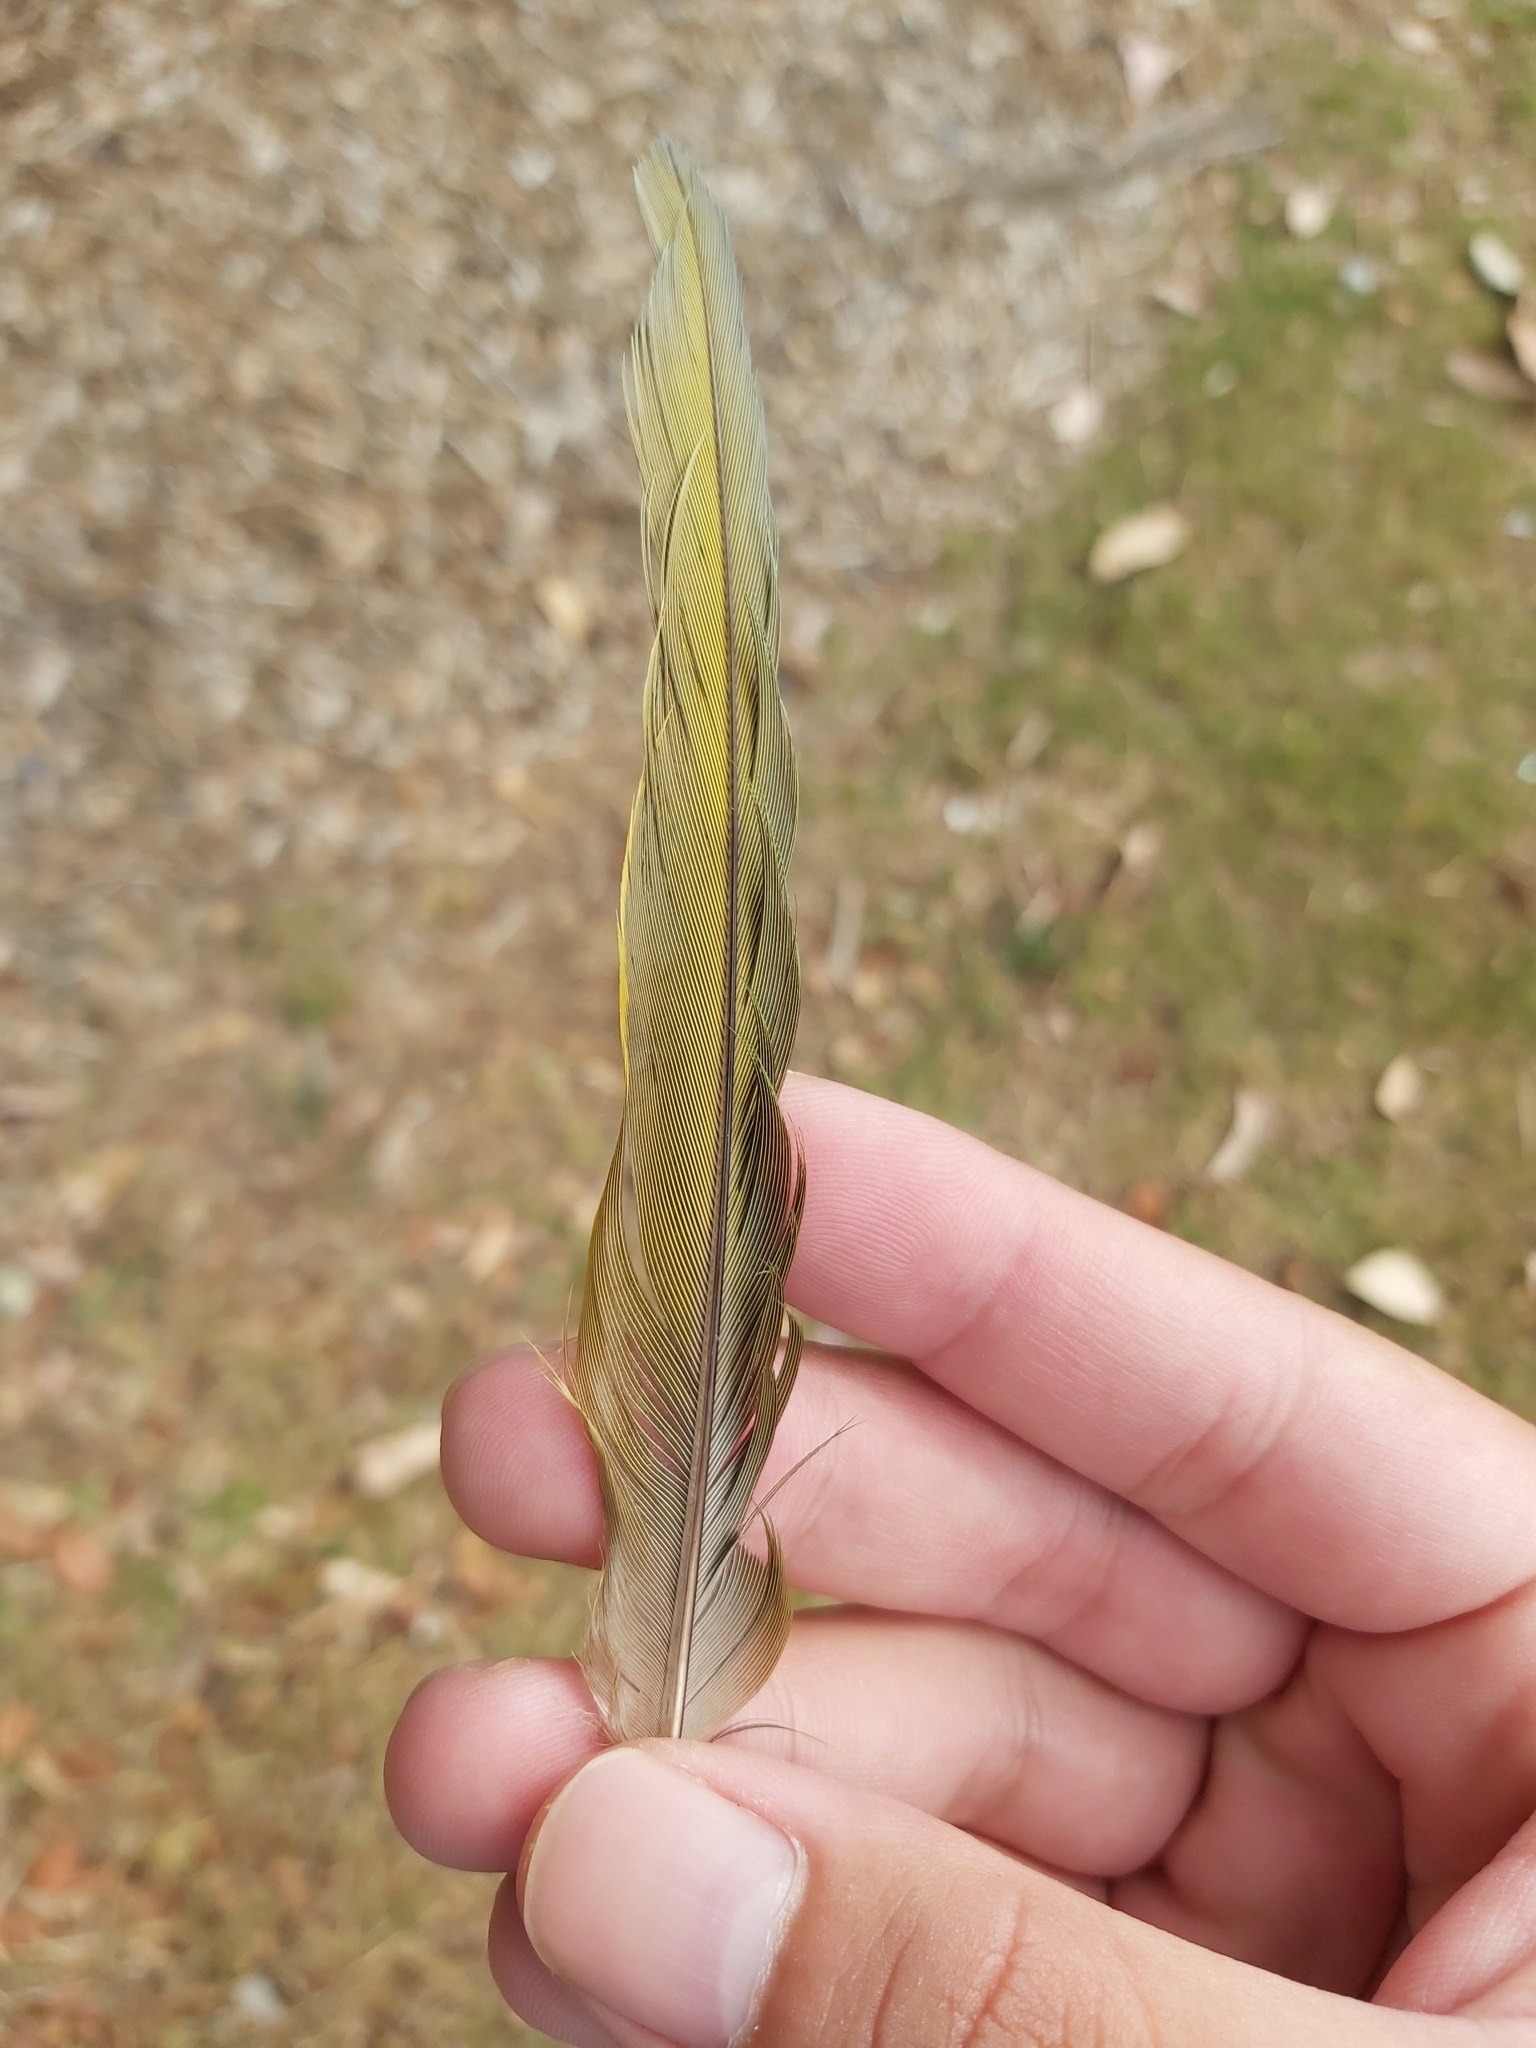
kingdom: Animalia
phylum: Chordata
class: Aves
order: Psittaciformes
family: Psittacidae
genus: Trichoglossus
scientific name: Trichoglossus haematodus
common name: Coconut lorikeet
